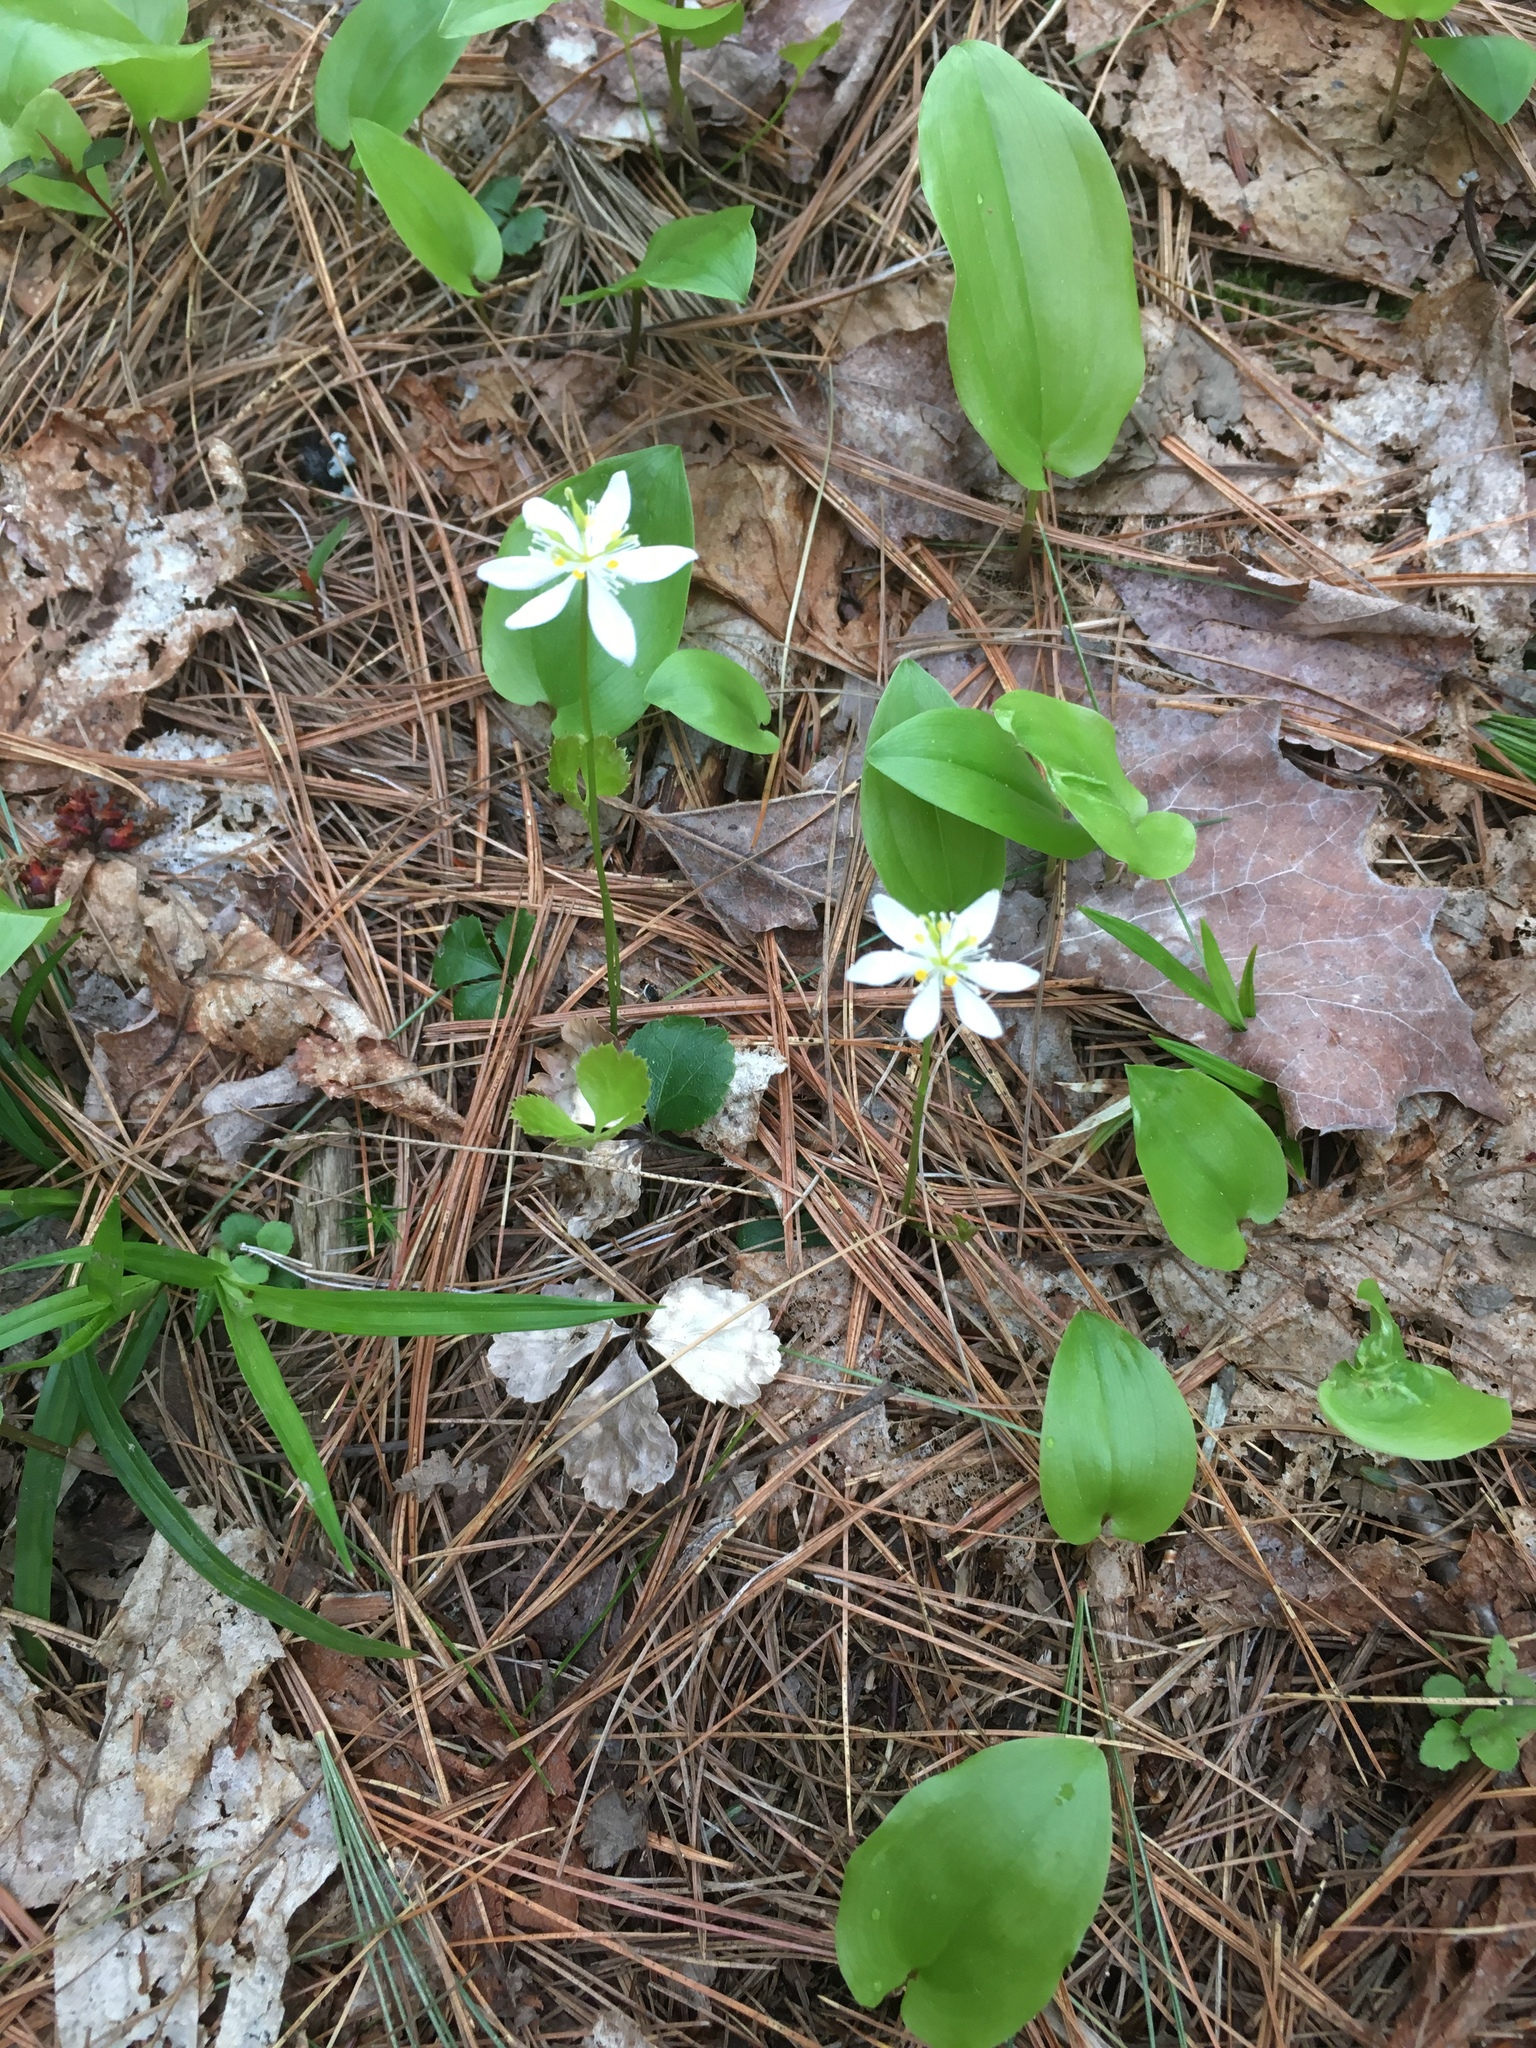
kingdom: Plantae
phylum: Tracheophyta
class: Magnoliopsida
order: Ranunculales
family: Ranunculaceae
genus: Coptis
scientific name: Coptis trifolia
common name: Canker-root
